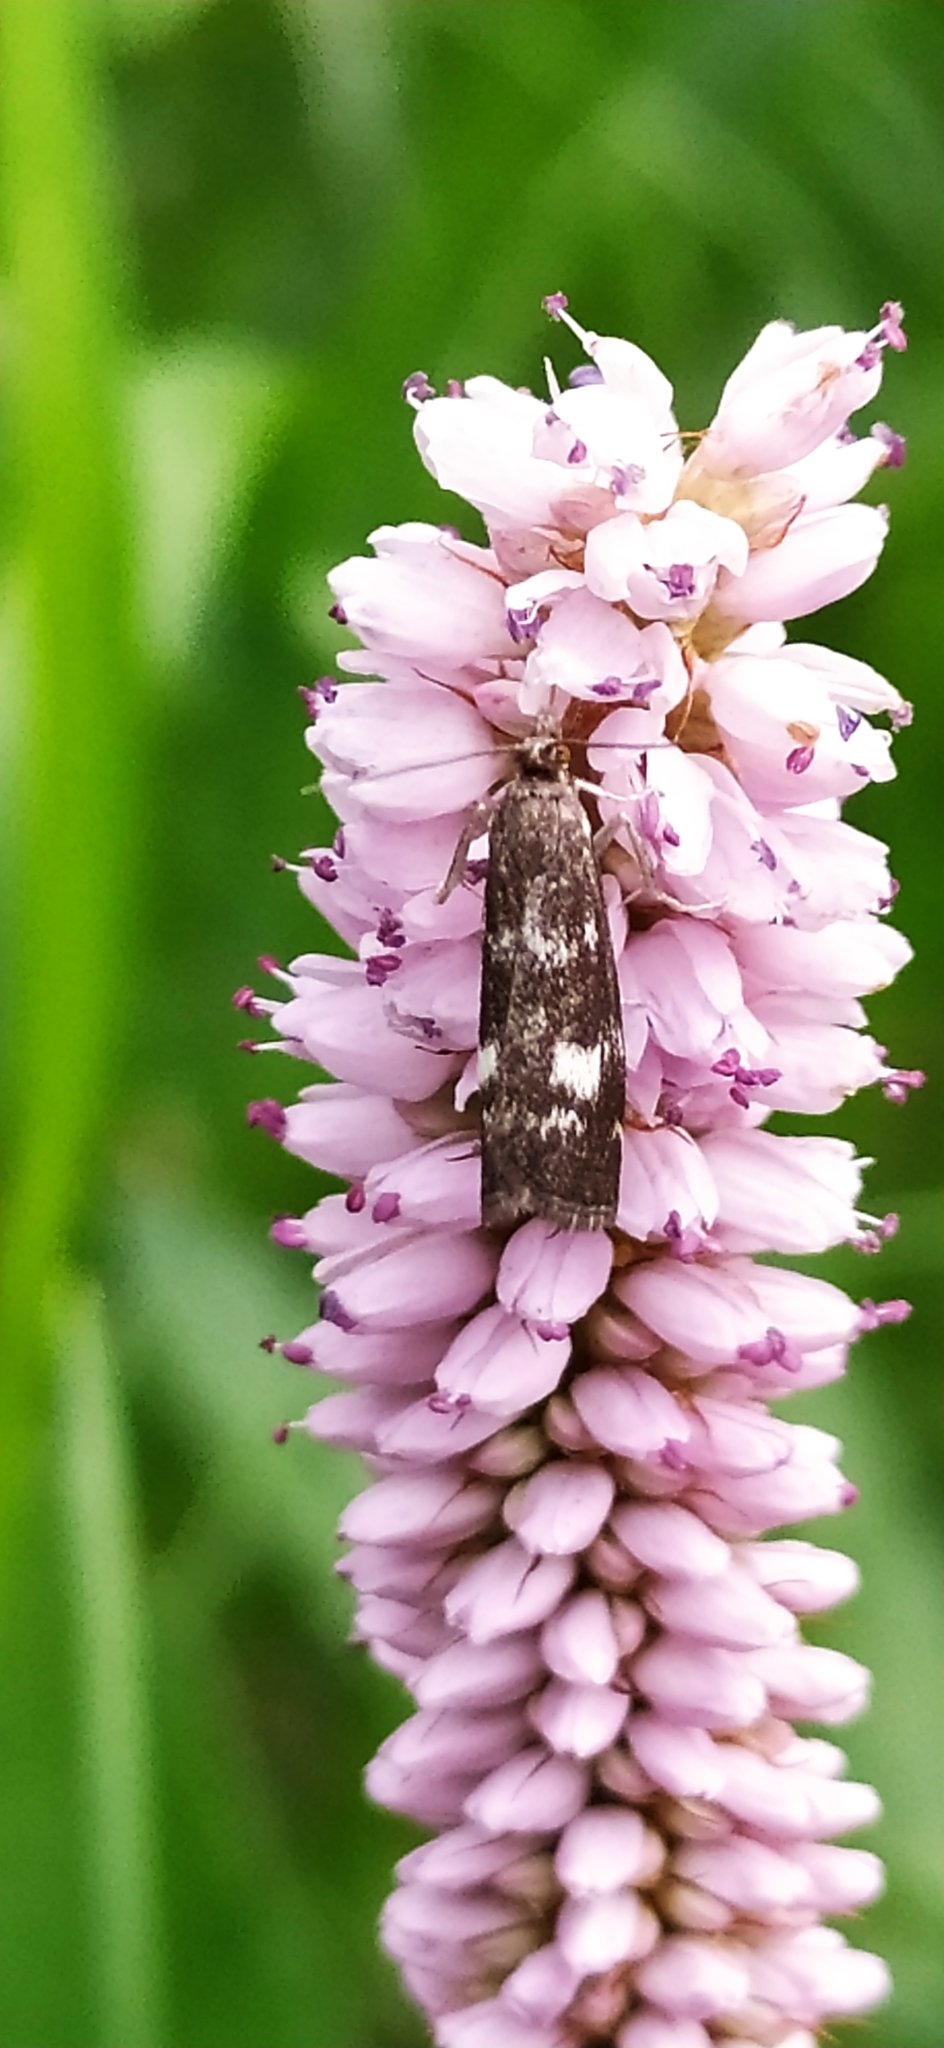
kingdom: Animalia
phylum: Arthropoda
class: Insecta
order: Lepidoptera
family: Crambidae
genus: Catoptria
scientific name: Catoptria maculalis
